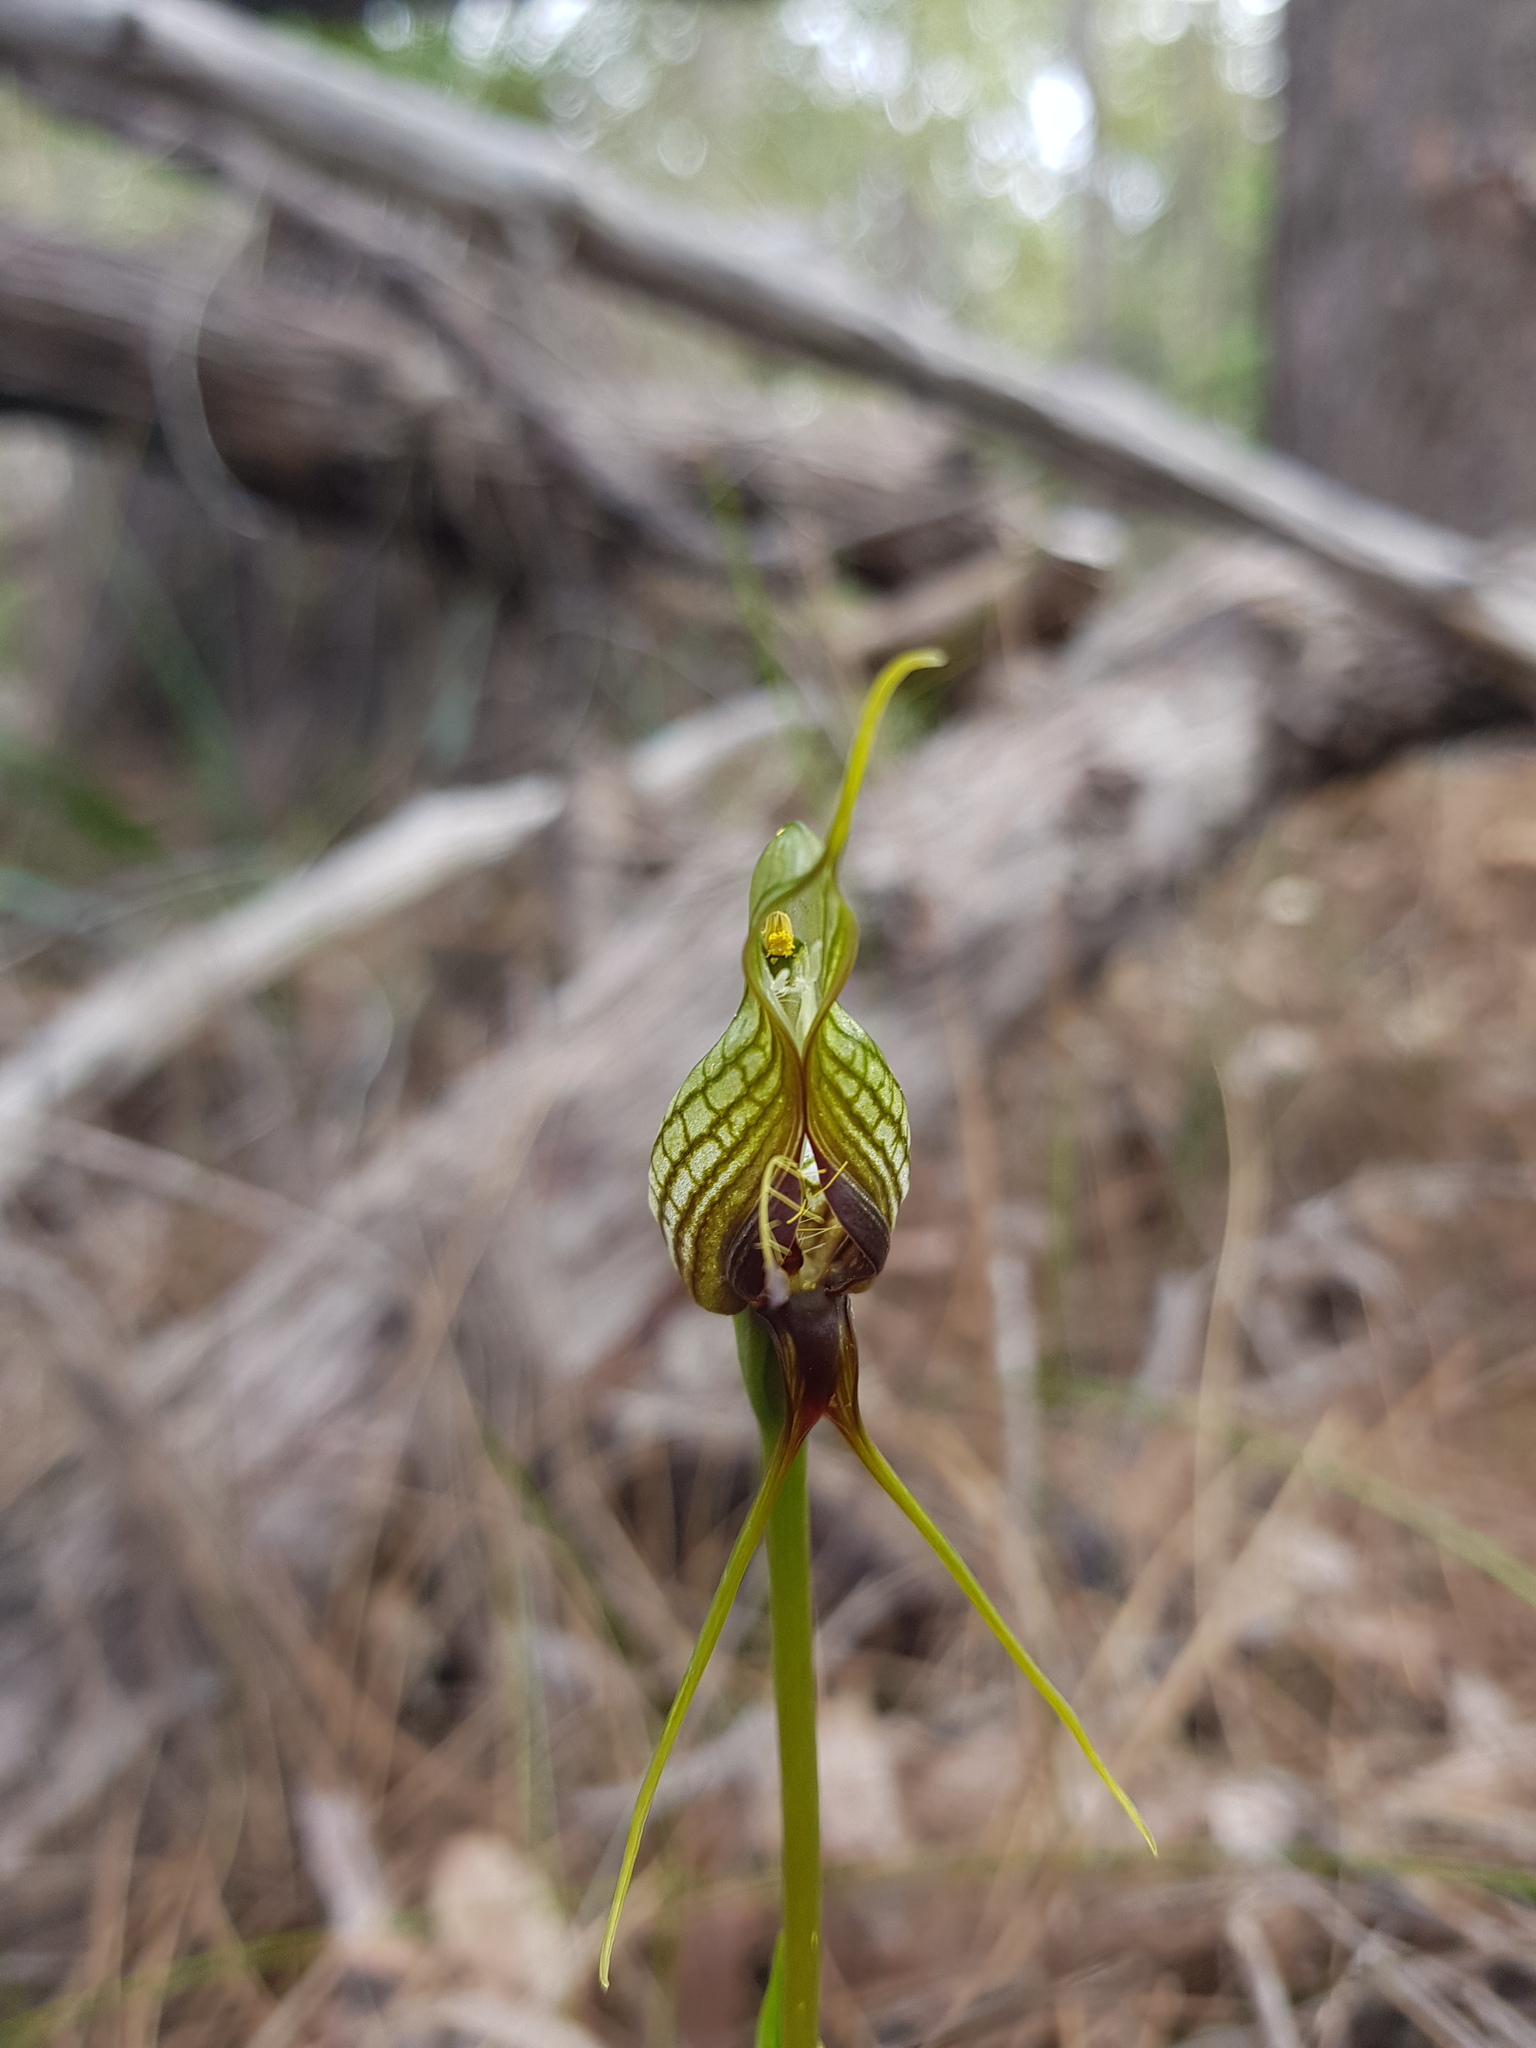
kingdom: Plantae
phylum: Tracheophyta
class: Liliopsida
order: Asparagales
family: Orchidaceae
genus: Pterostylis
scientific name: Pterostylis barbata
